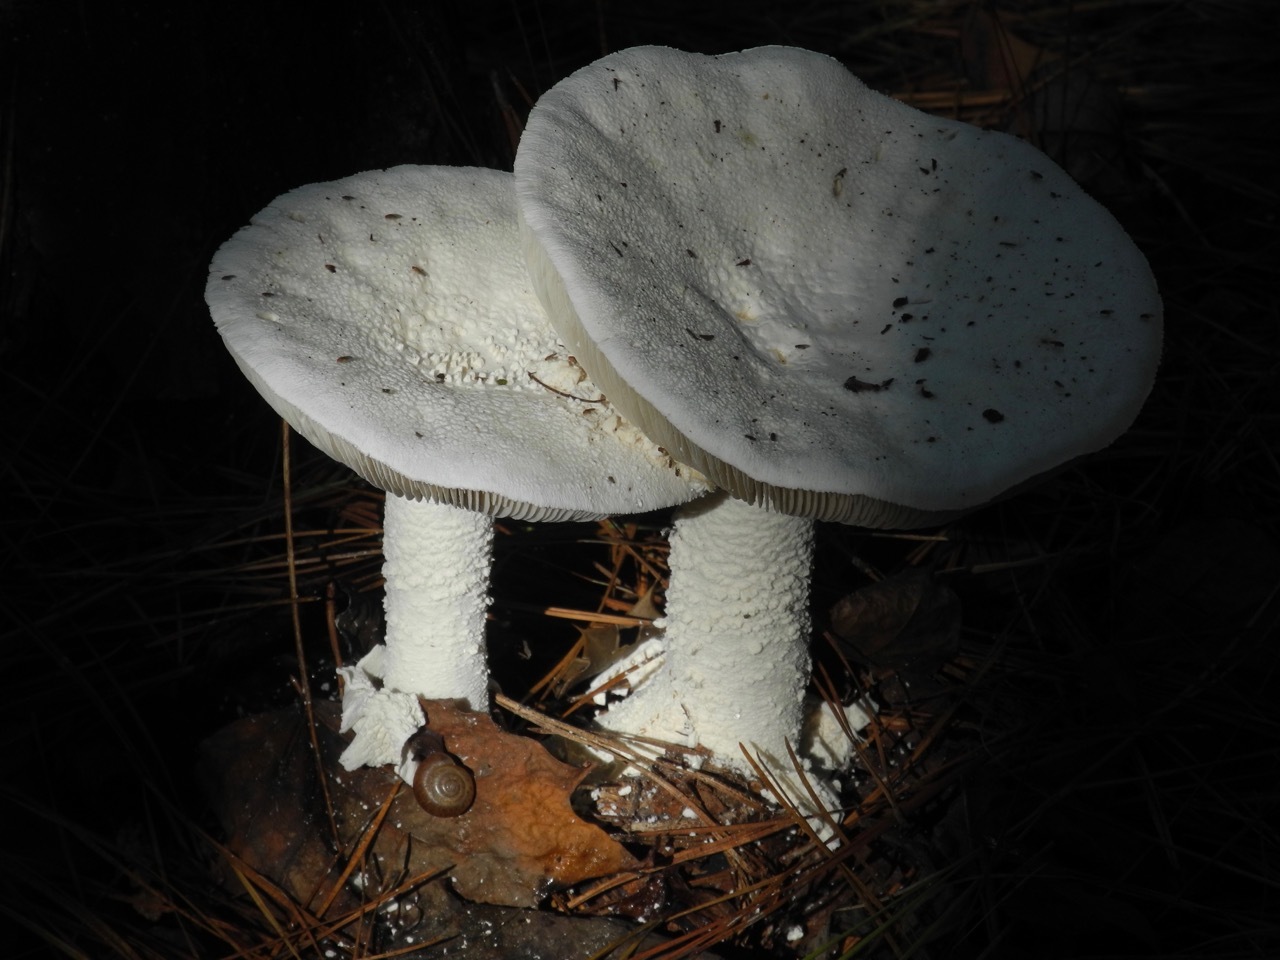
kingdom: Fungi
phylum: Basidiomycota
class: Agaricomycetes
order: Agaricales
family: Amanitaceae
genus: Amanita
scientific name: Amanita polypyramis
